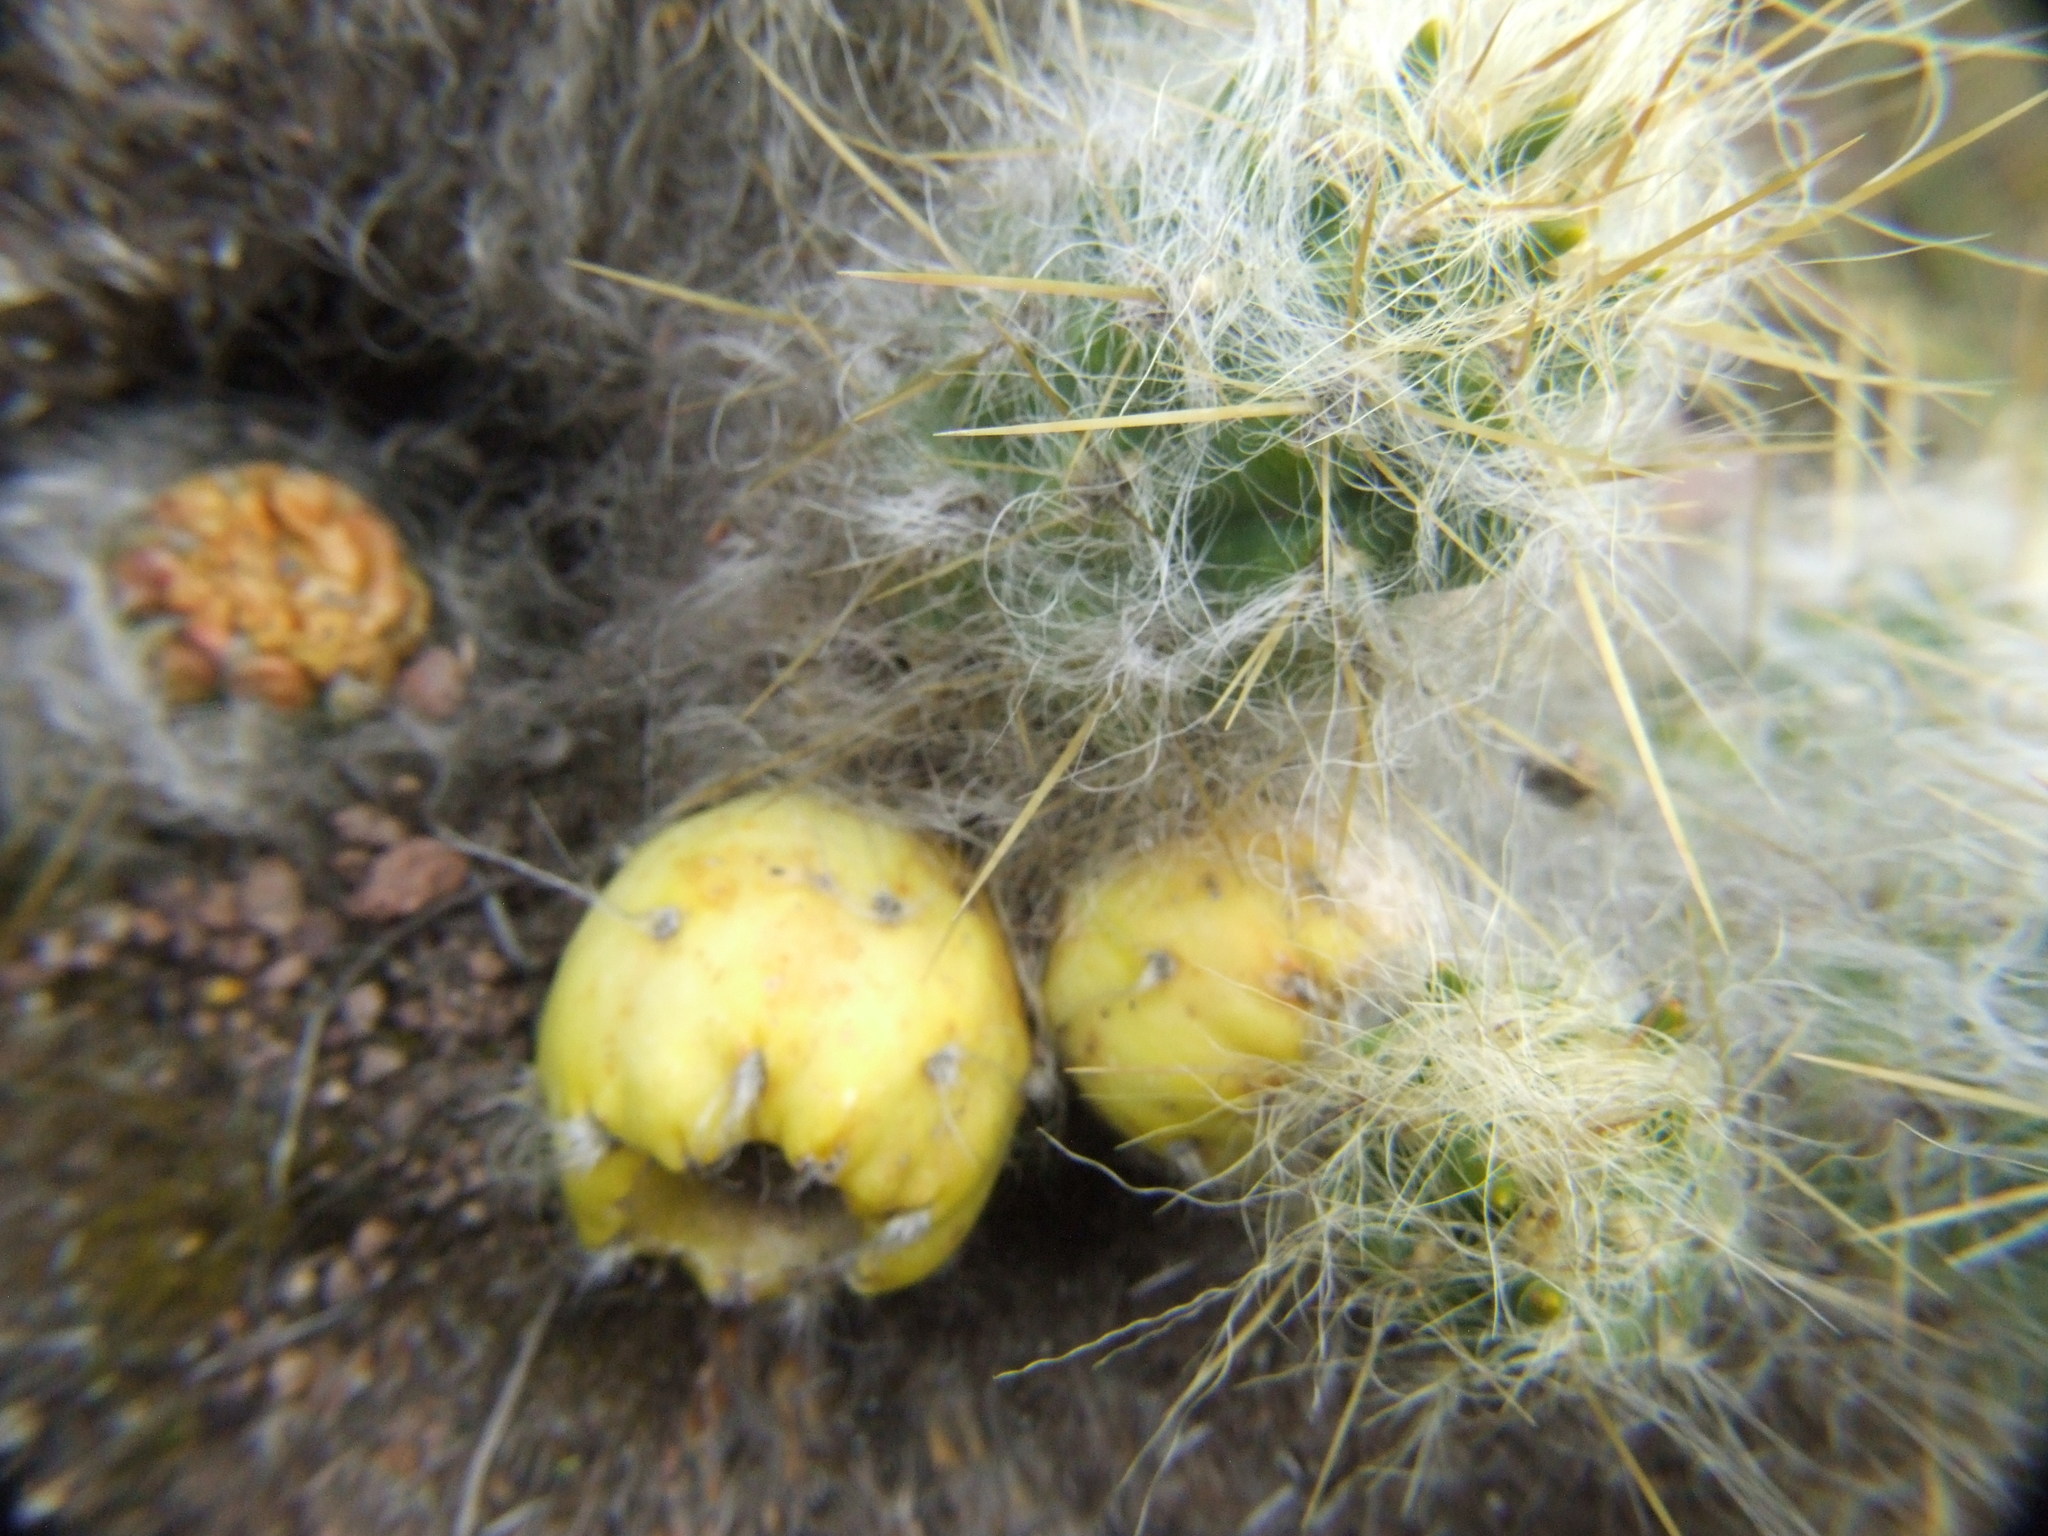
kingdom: Plantae
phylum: Tracheophyta
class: Magnoliopsida
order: Caryophyllales
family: Cactaceae
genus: Austrocylindropuntia
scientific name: Austrocylindropuntia floccosa
